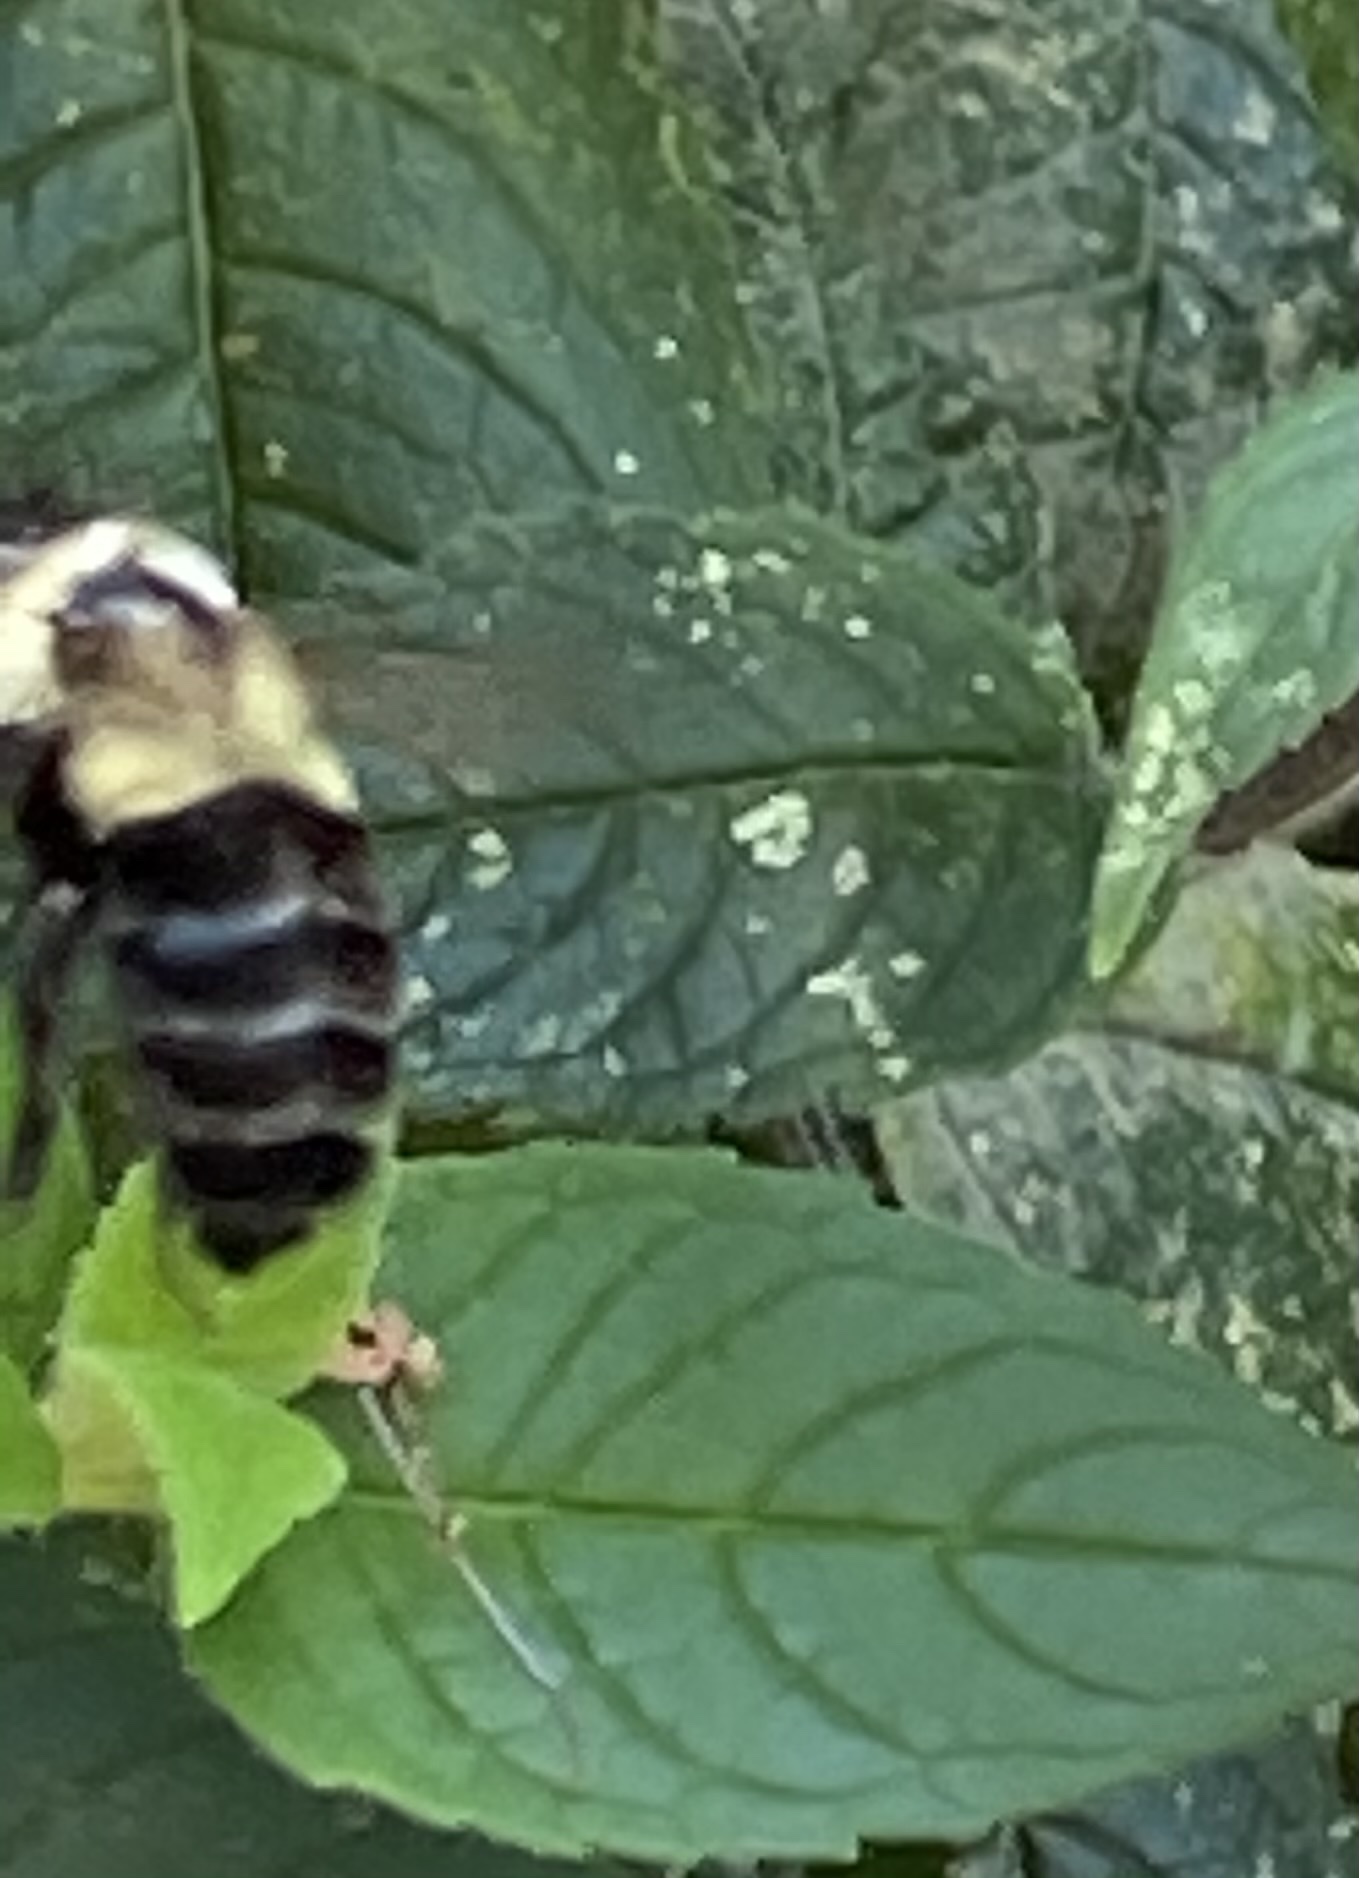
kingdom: Animalia
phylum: Arthropoda
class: Insecta
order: Hymenoptera
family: Apidae
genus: Bombus
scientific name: Bombus impatiens
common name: Common eastern bumble bee
